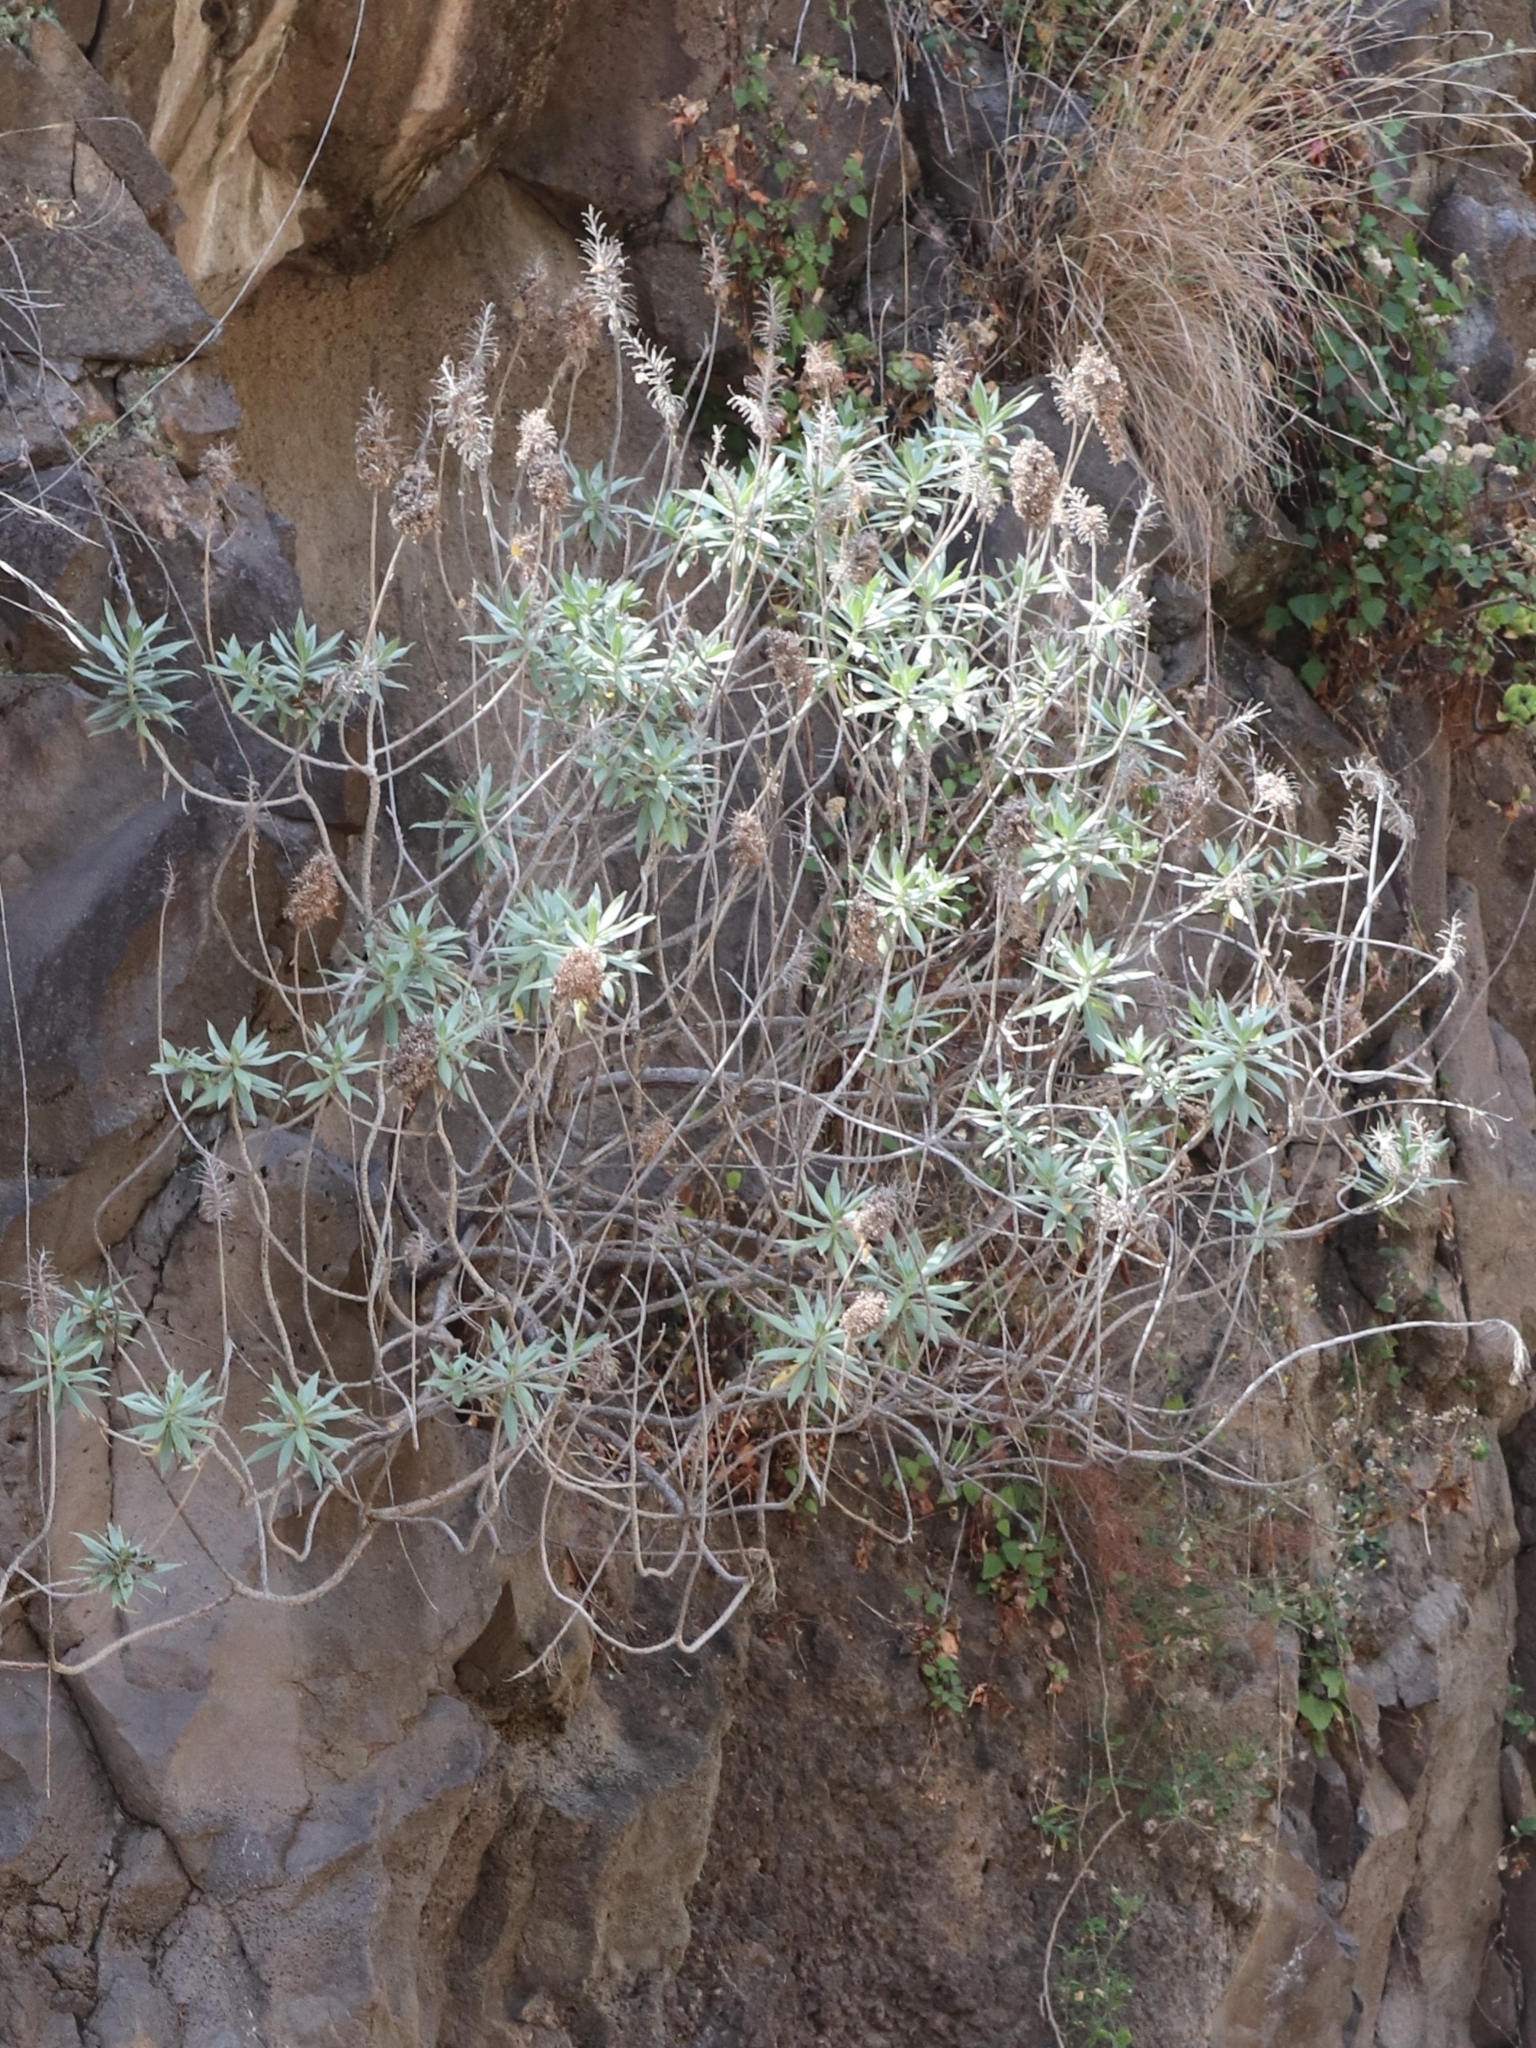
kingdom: Plantae
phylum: Tracheophyta
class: Magnoliopsida
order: Boraginales
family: Boraginaceae
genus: Echium
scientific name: Echium nervosum
